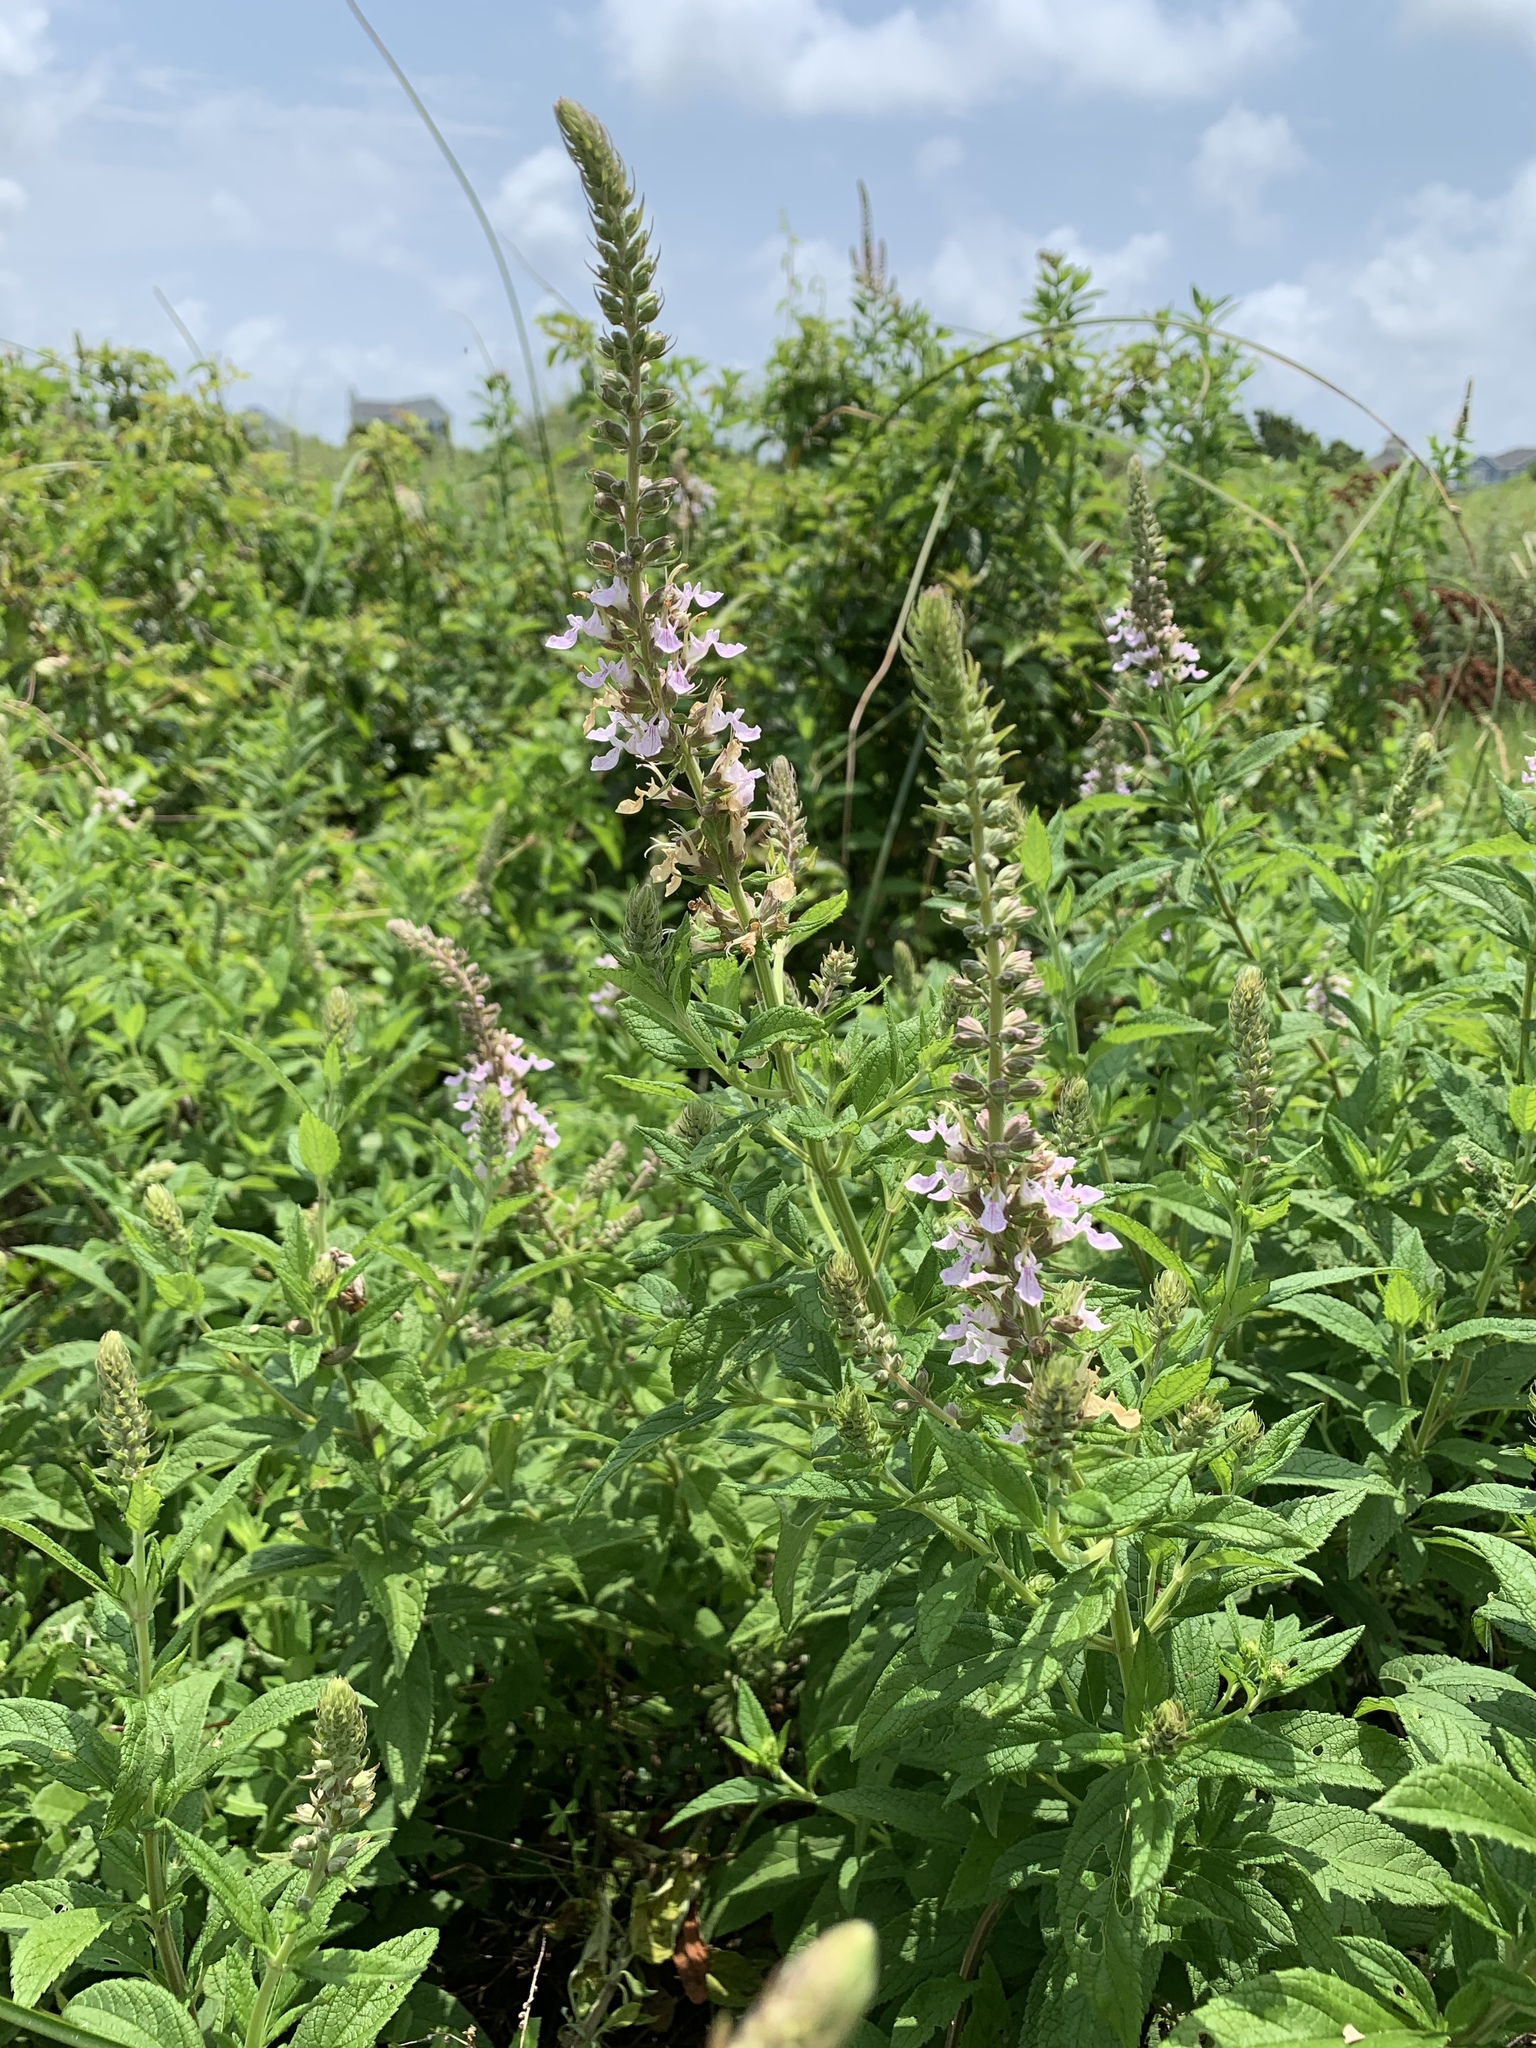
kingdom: Plantae
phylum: Tracheophyta
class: Magnoliopsida
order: Lamiales
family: Lamiaceae
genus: Teucrium
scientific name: Teucrium canadense
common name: American germander
